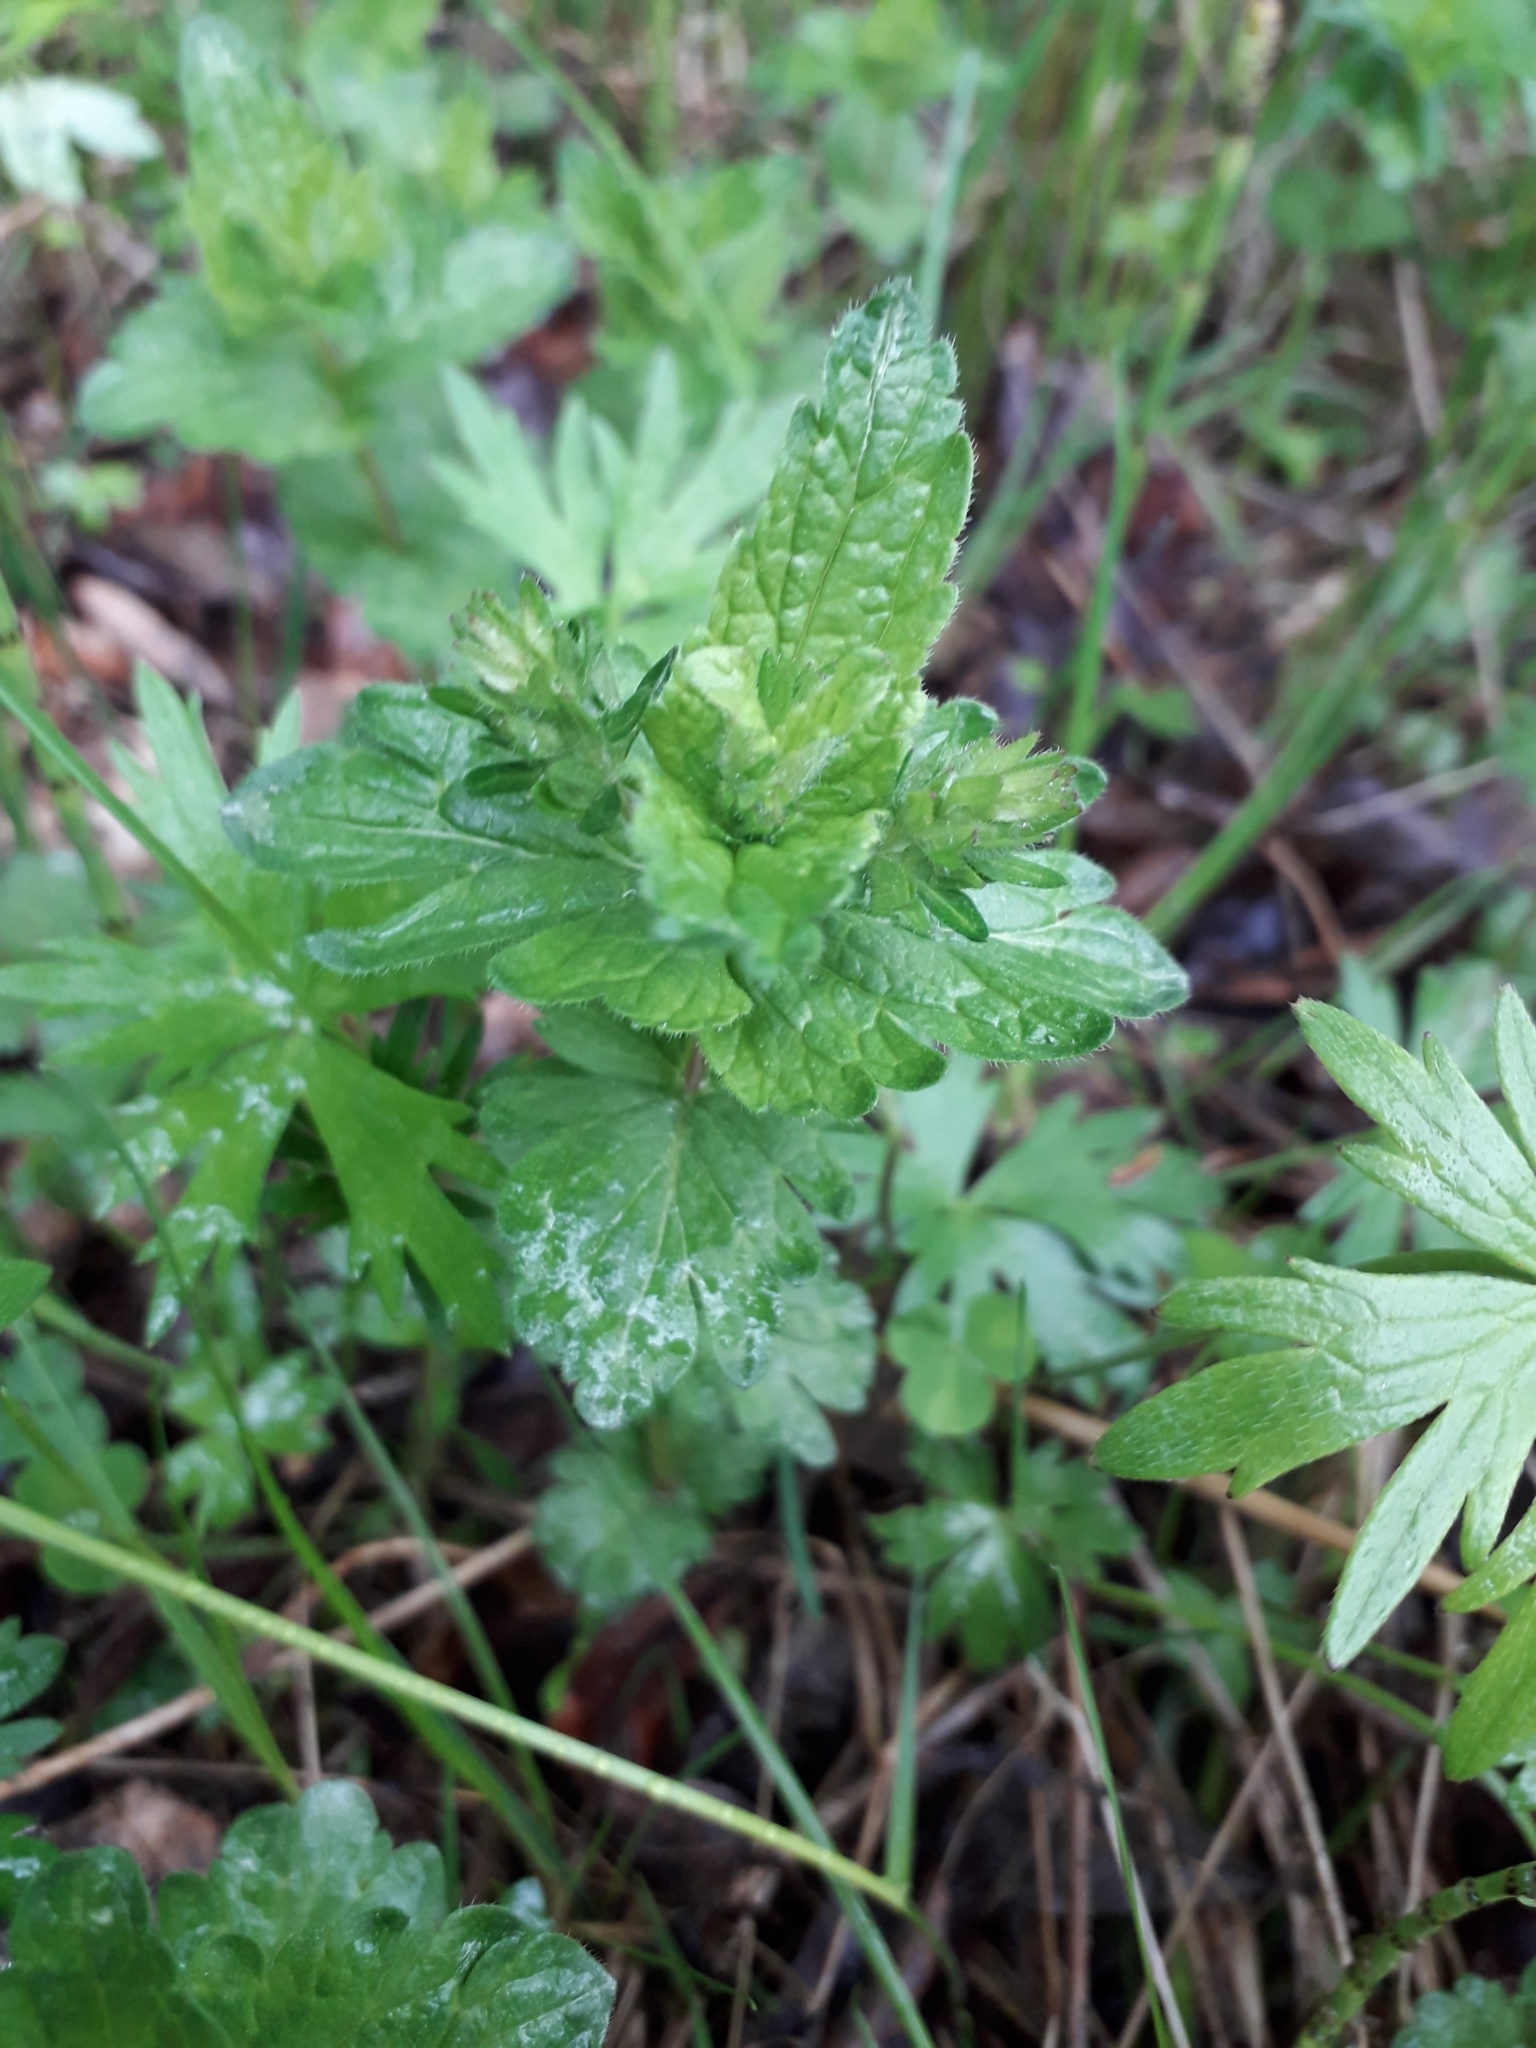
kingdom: Plantae
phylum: Tracheophyta
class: Magnoliopsida
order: Lamiales
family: Plantaginaceae
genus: Veronica
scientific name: Veronica chamaedrys
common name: Germander speedwell
